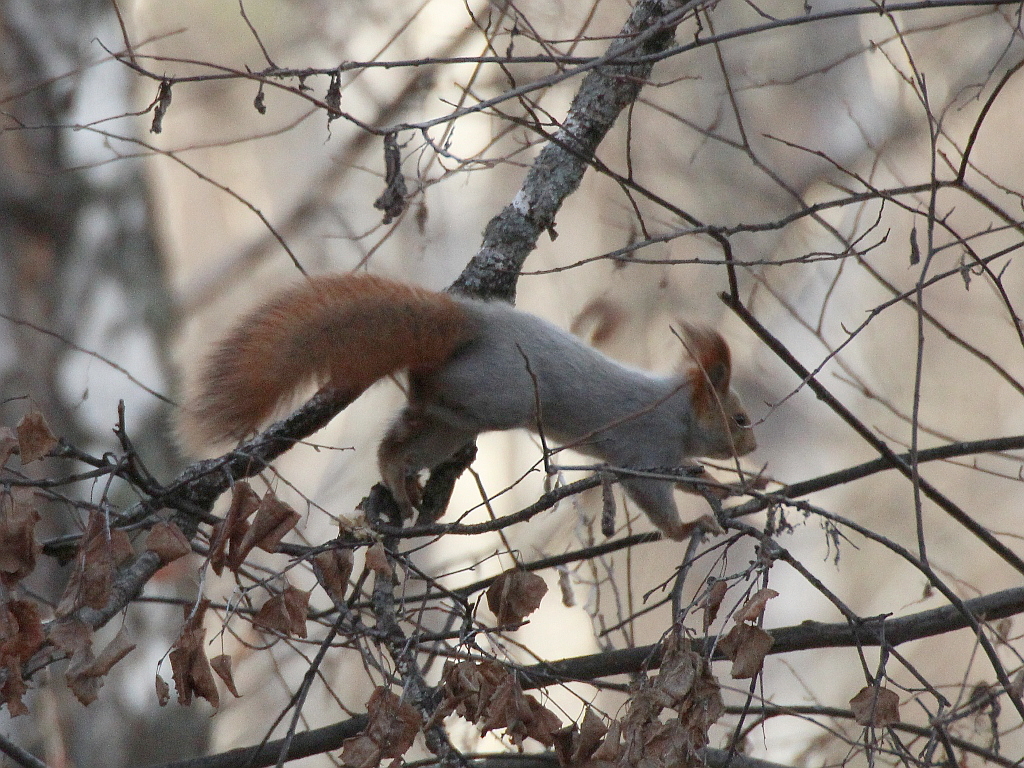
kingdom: Animalia
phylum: Chordata
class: Mammalia
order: Rodentia
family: Sciuridae
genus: Sciurus
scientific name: Sciurus vulgaris
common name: Eurasian red squirrel
